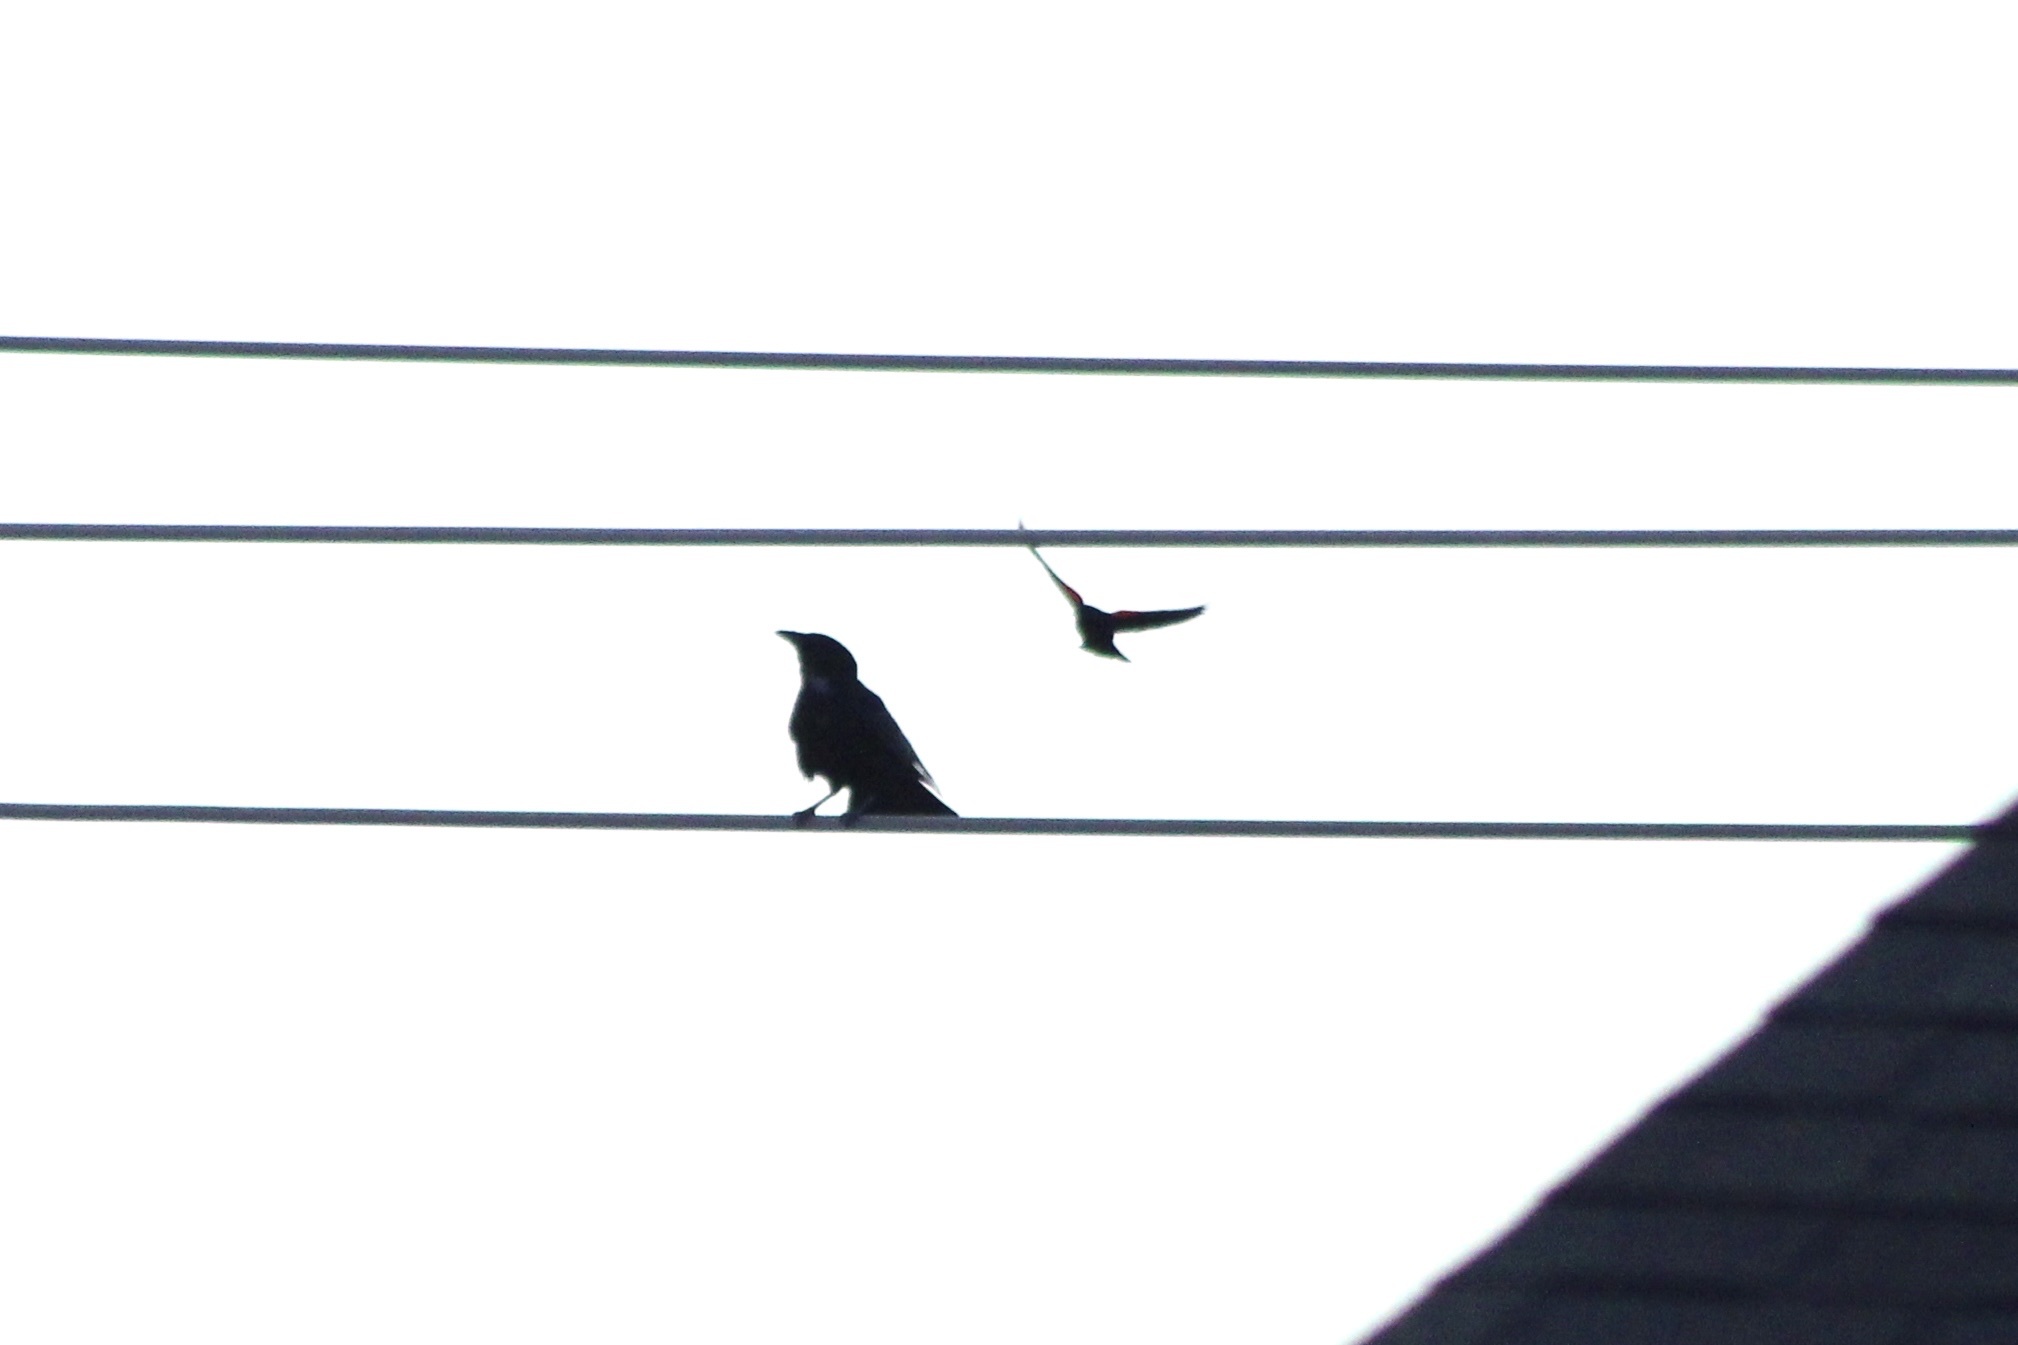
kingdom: Animalia
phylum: Chordata
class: Aves
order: Passeriformes
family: Icteridae
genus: Agelaius
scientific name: Agelaius phoeniceus
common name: Red-winged blackbird
